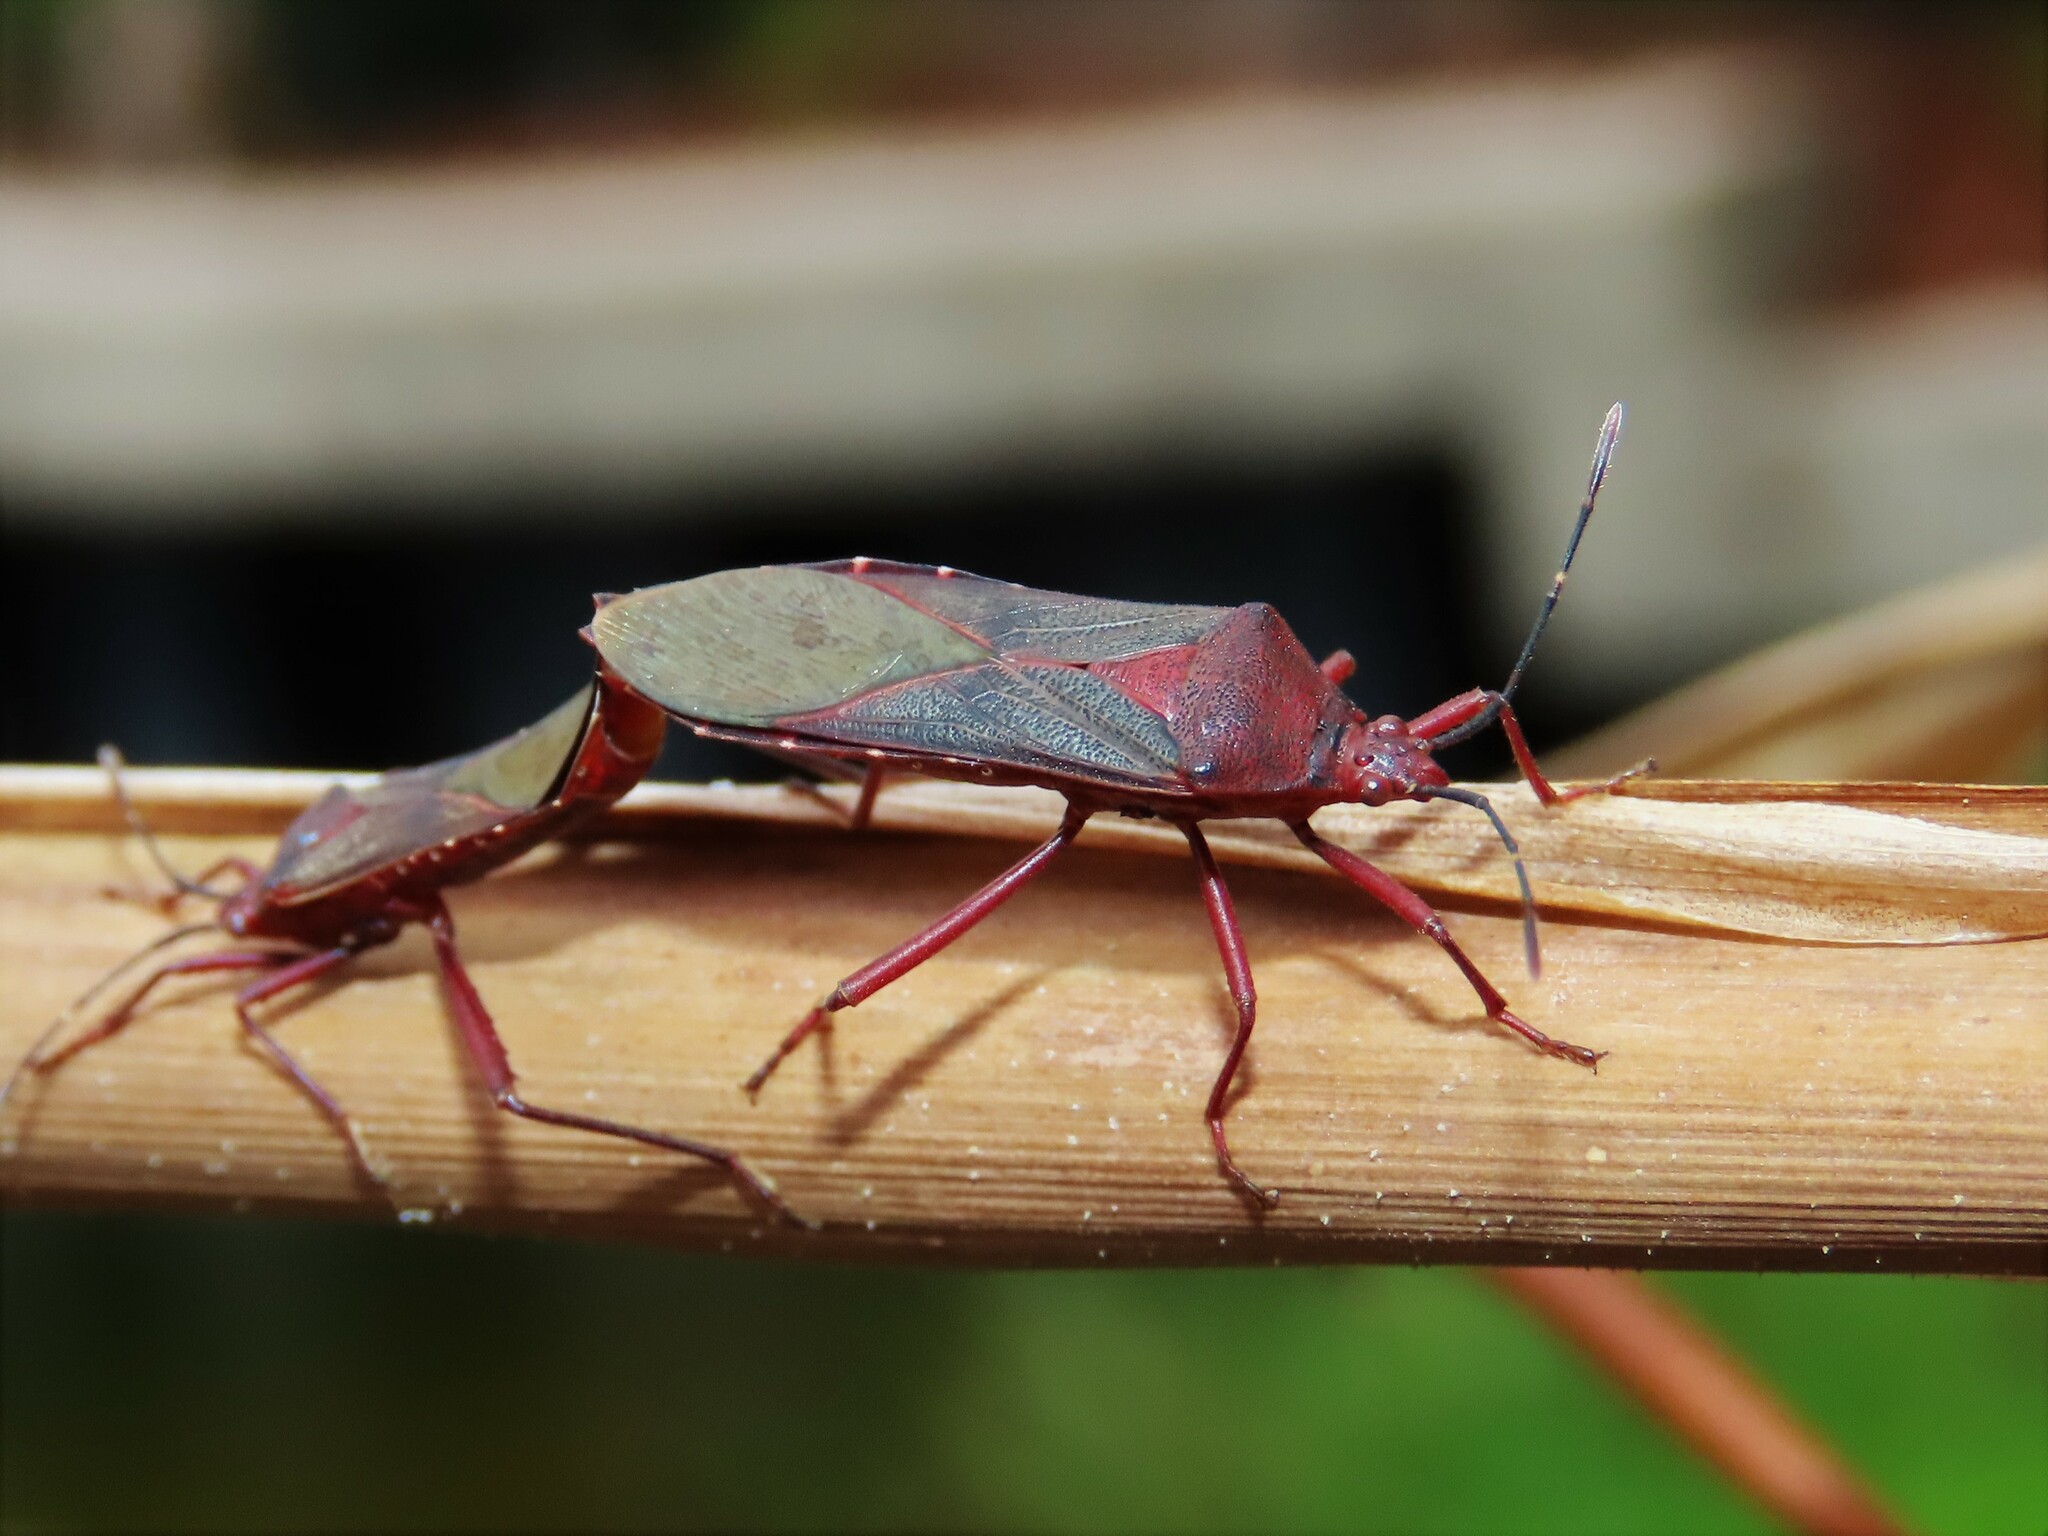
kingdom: Animalia
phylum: Arthropoda
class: Insecta
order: Hemiptera
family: Coreidae
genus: Namacus
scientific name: Namacus annulicornis
